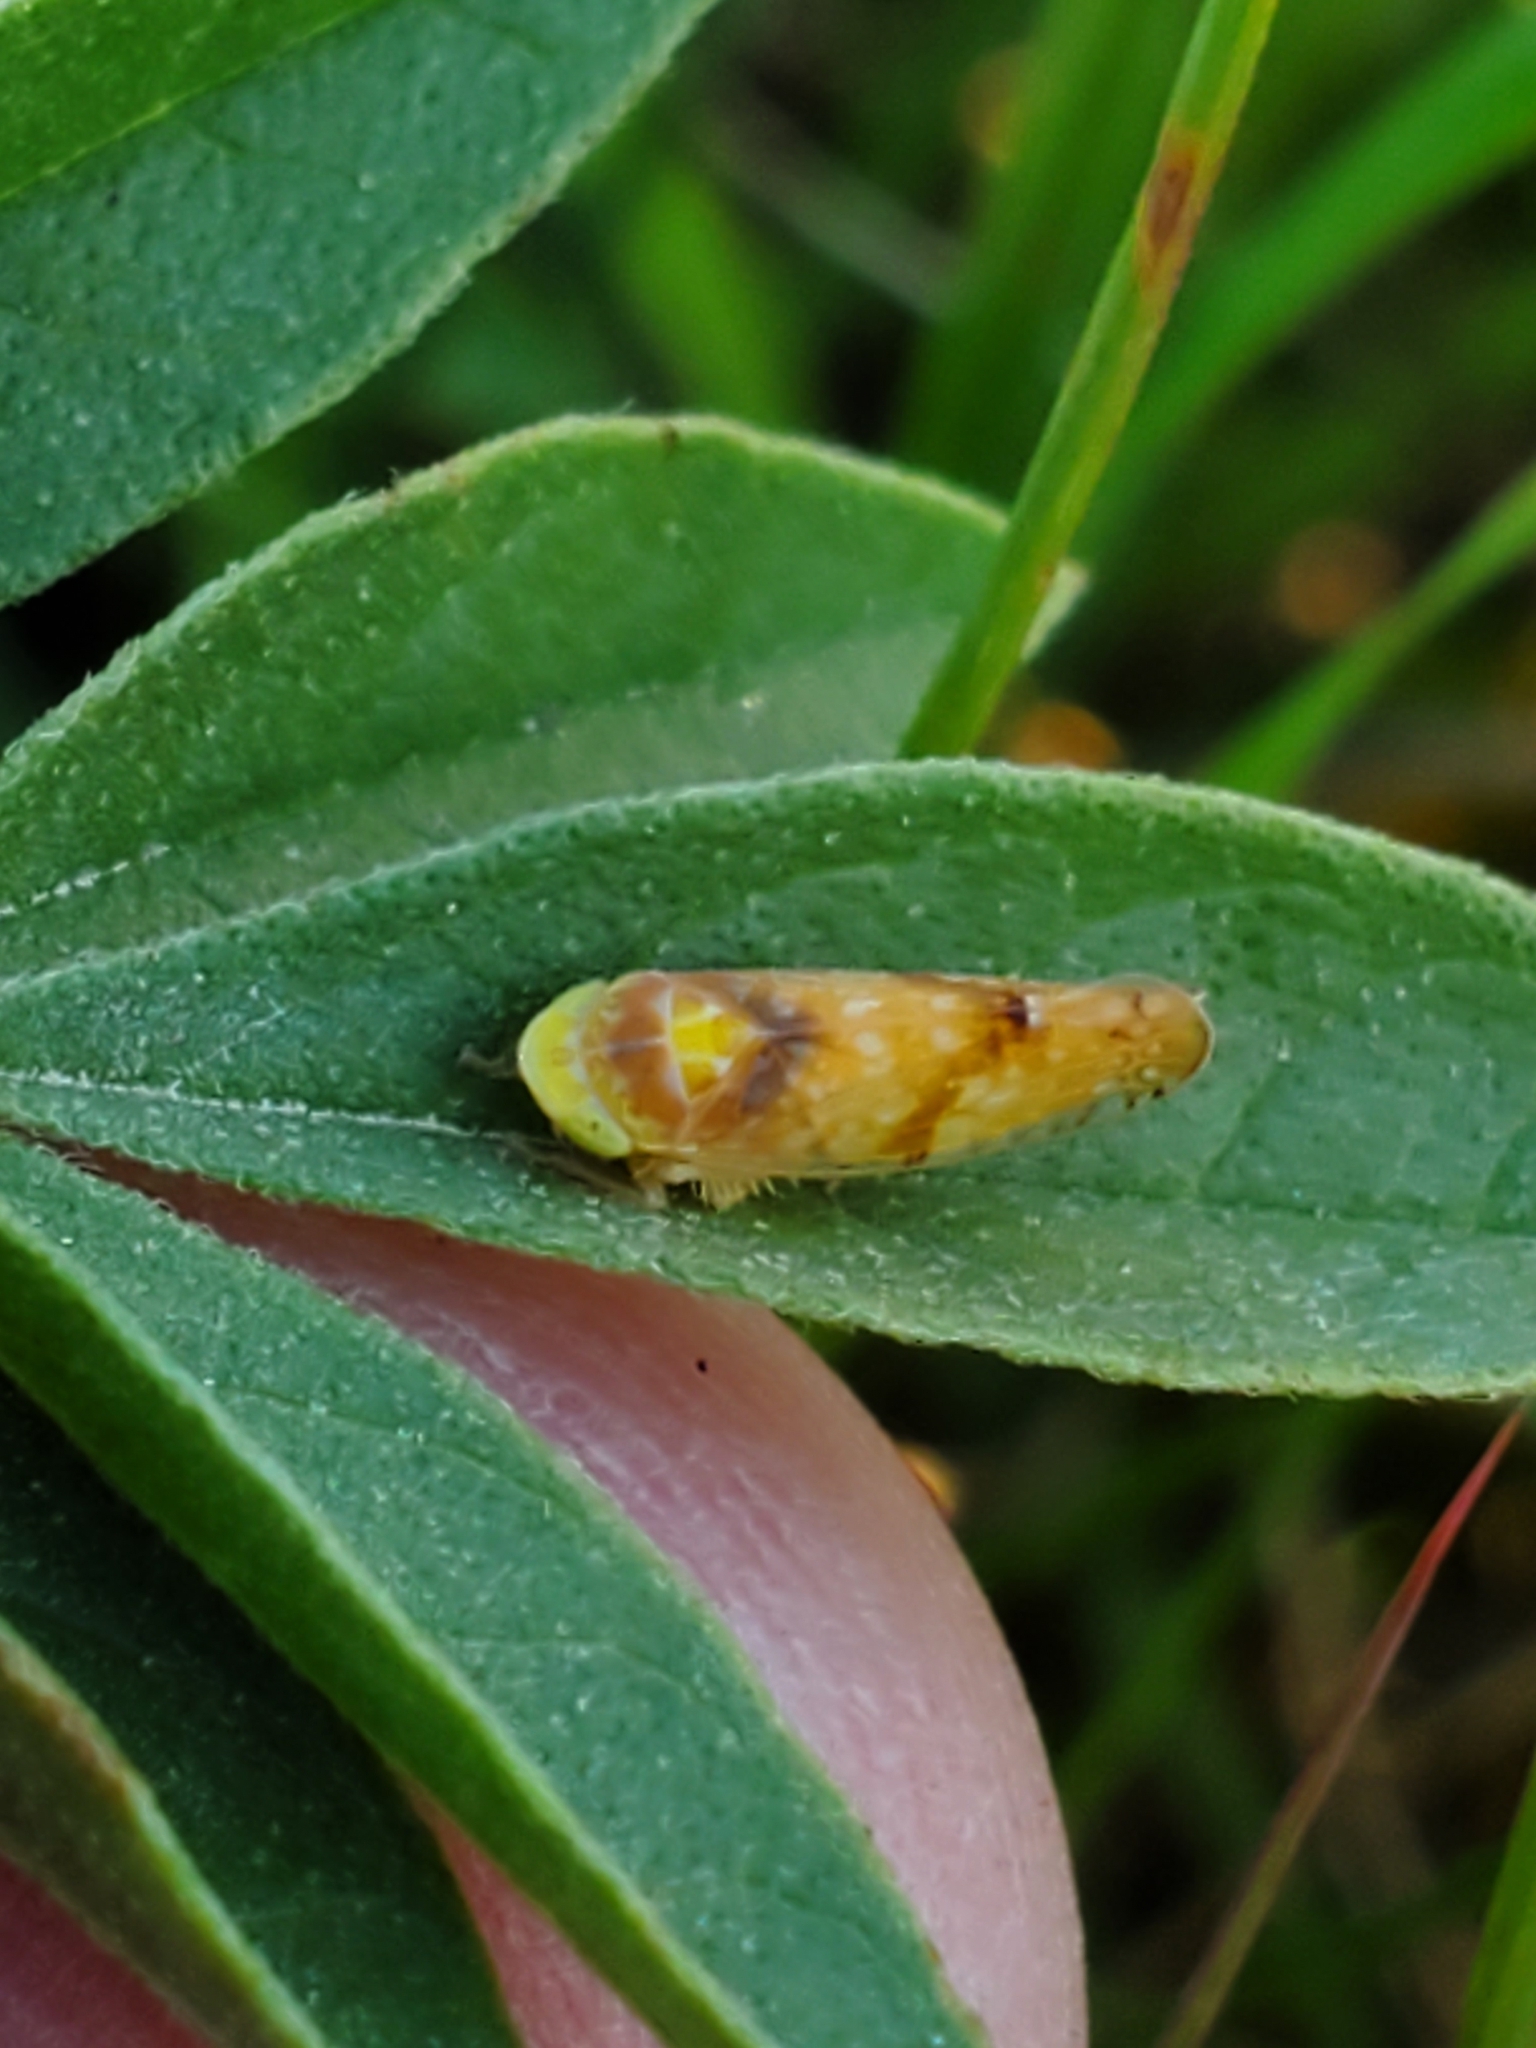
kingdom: Animalia
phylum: Arthropoda
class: Insecta
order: Hemiptera
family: Cicadellidae
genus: Fitchana
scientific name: Fitchana vitellina
